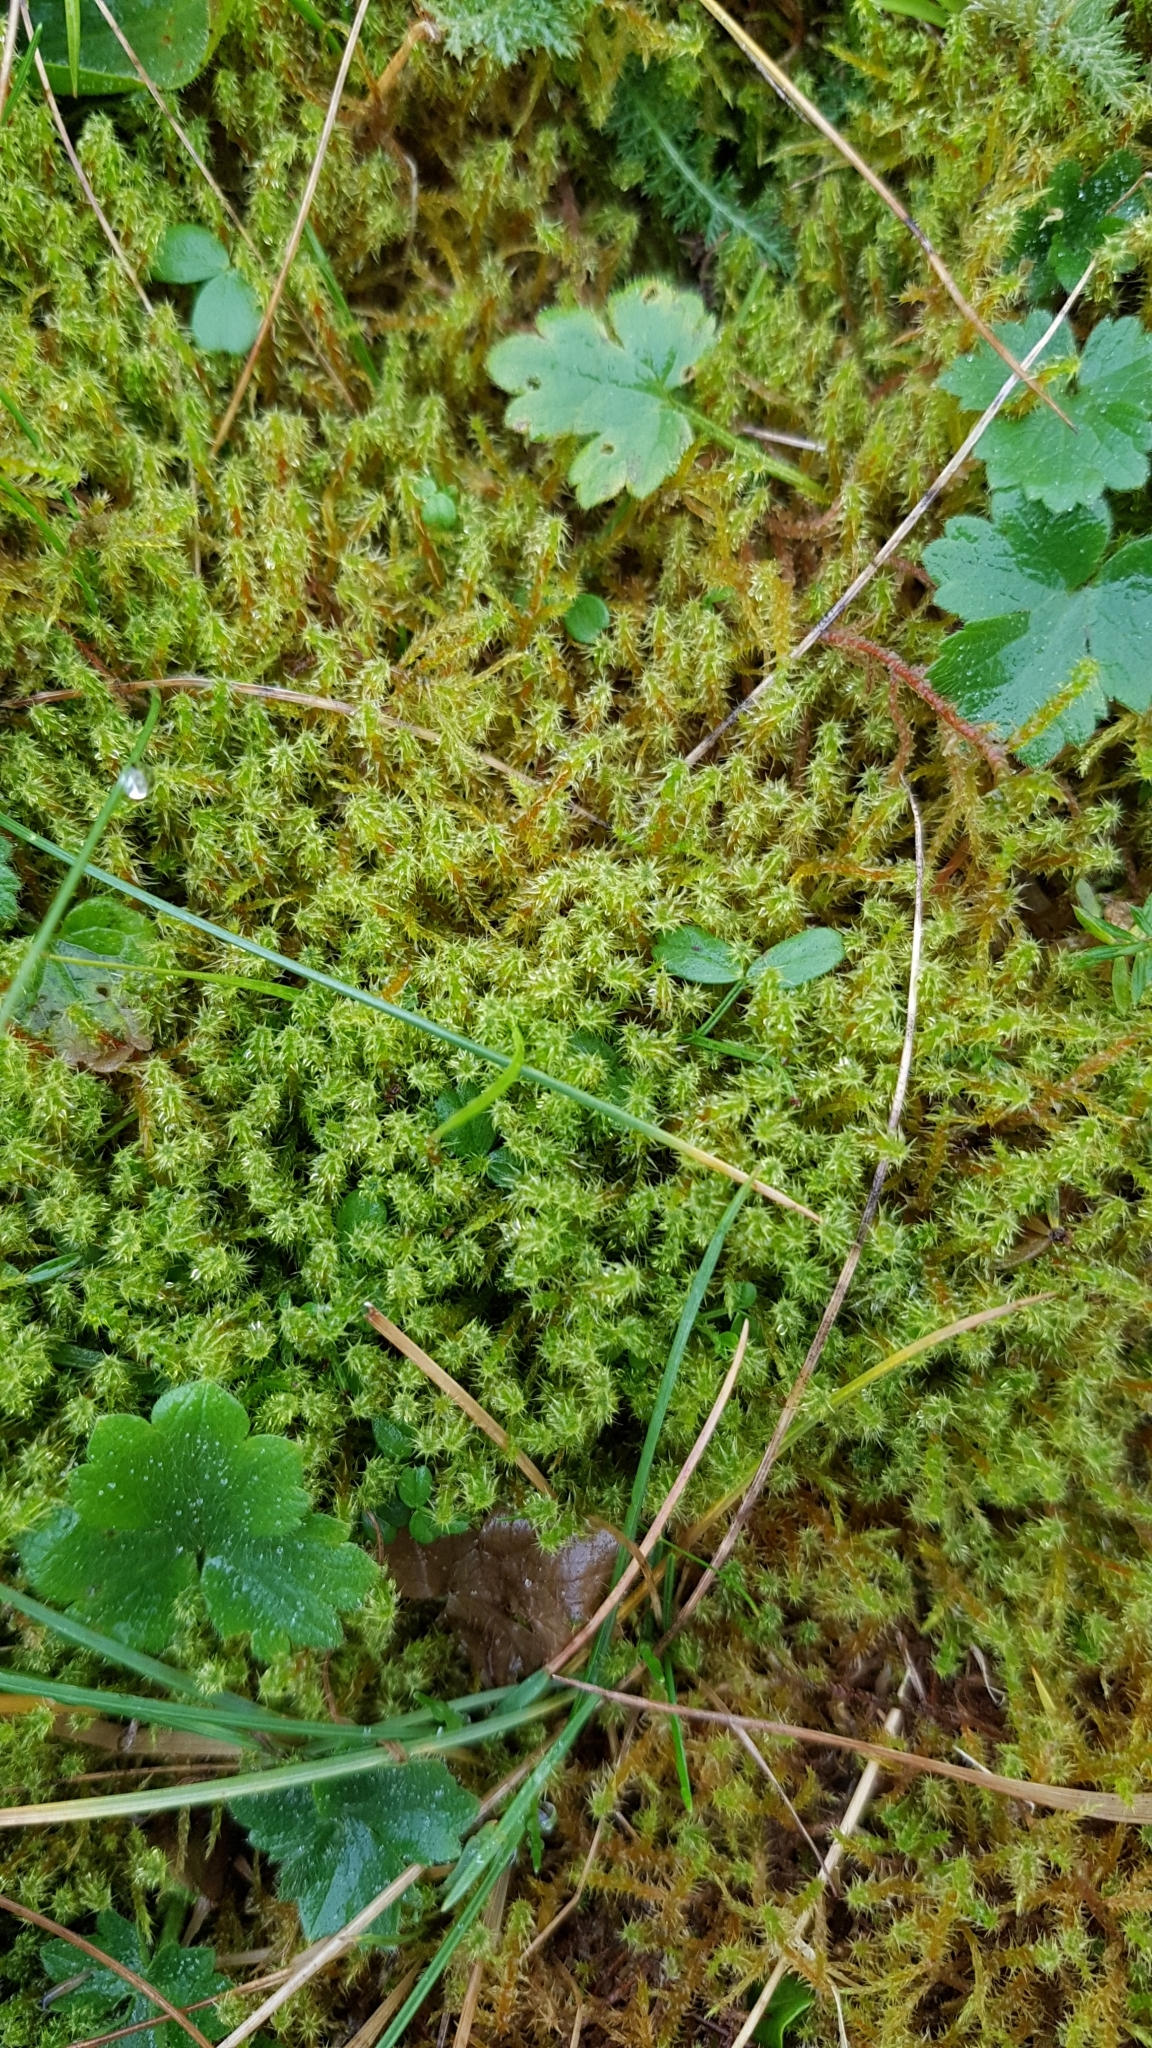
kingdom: Plantae
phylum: Bryophyta
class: Bryopsida
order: Hypnales
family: Hylocomiaceae
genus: Rhytidiadelphus
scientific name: Rhytidiadelphus squarrosus
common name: Springy turf-moss
